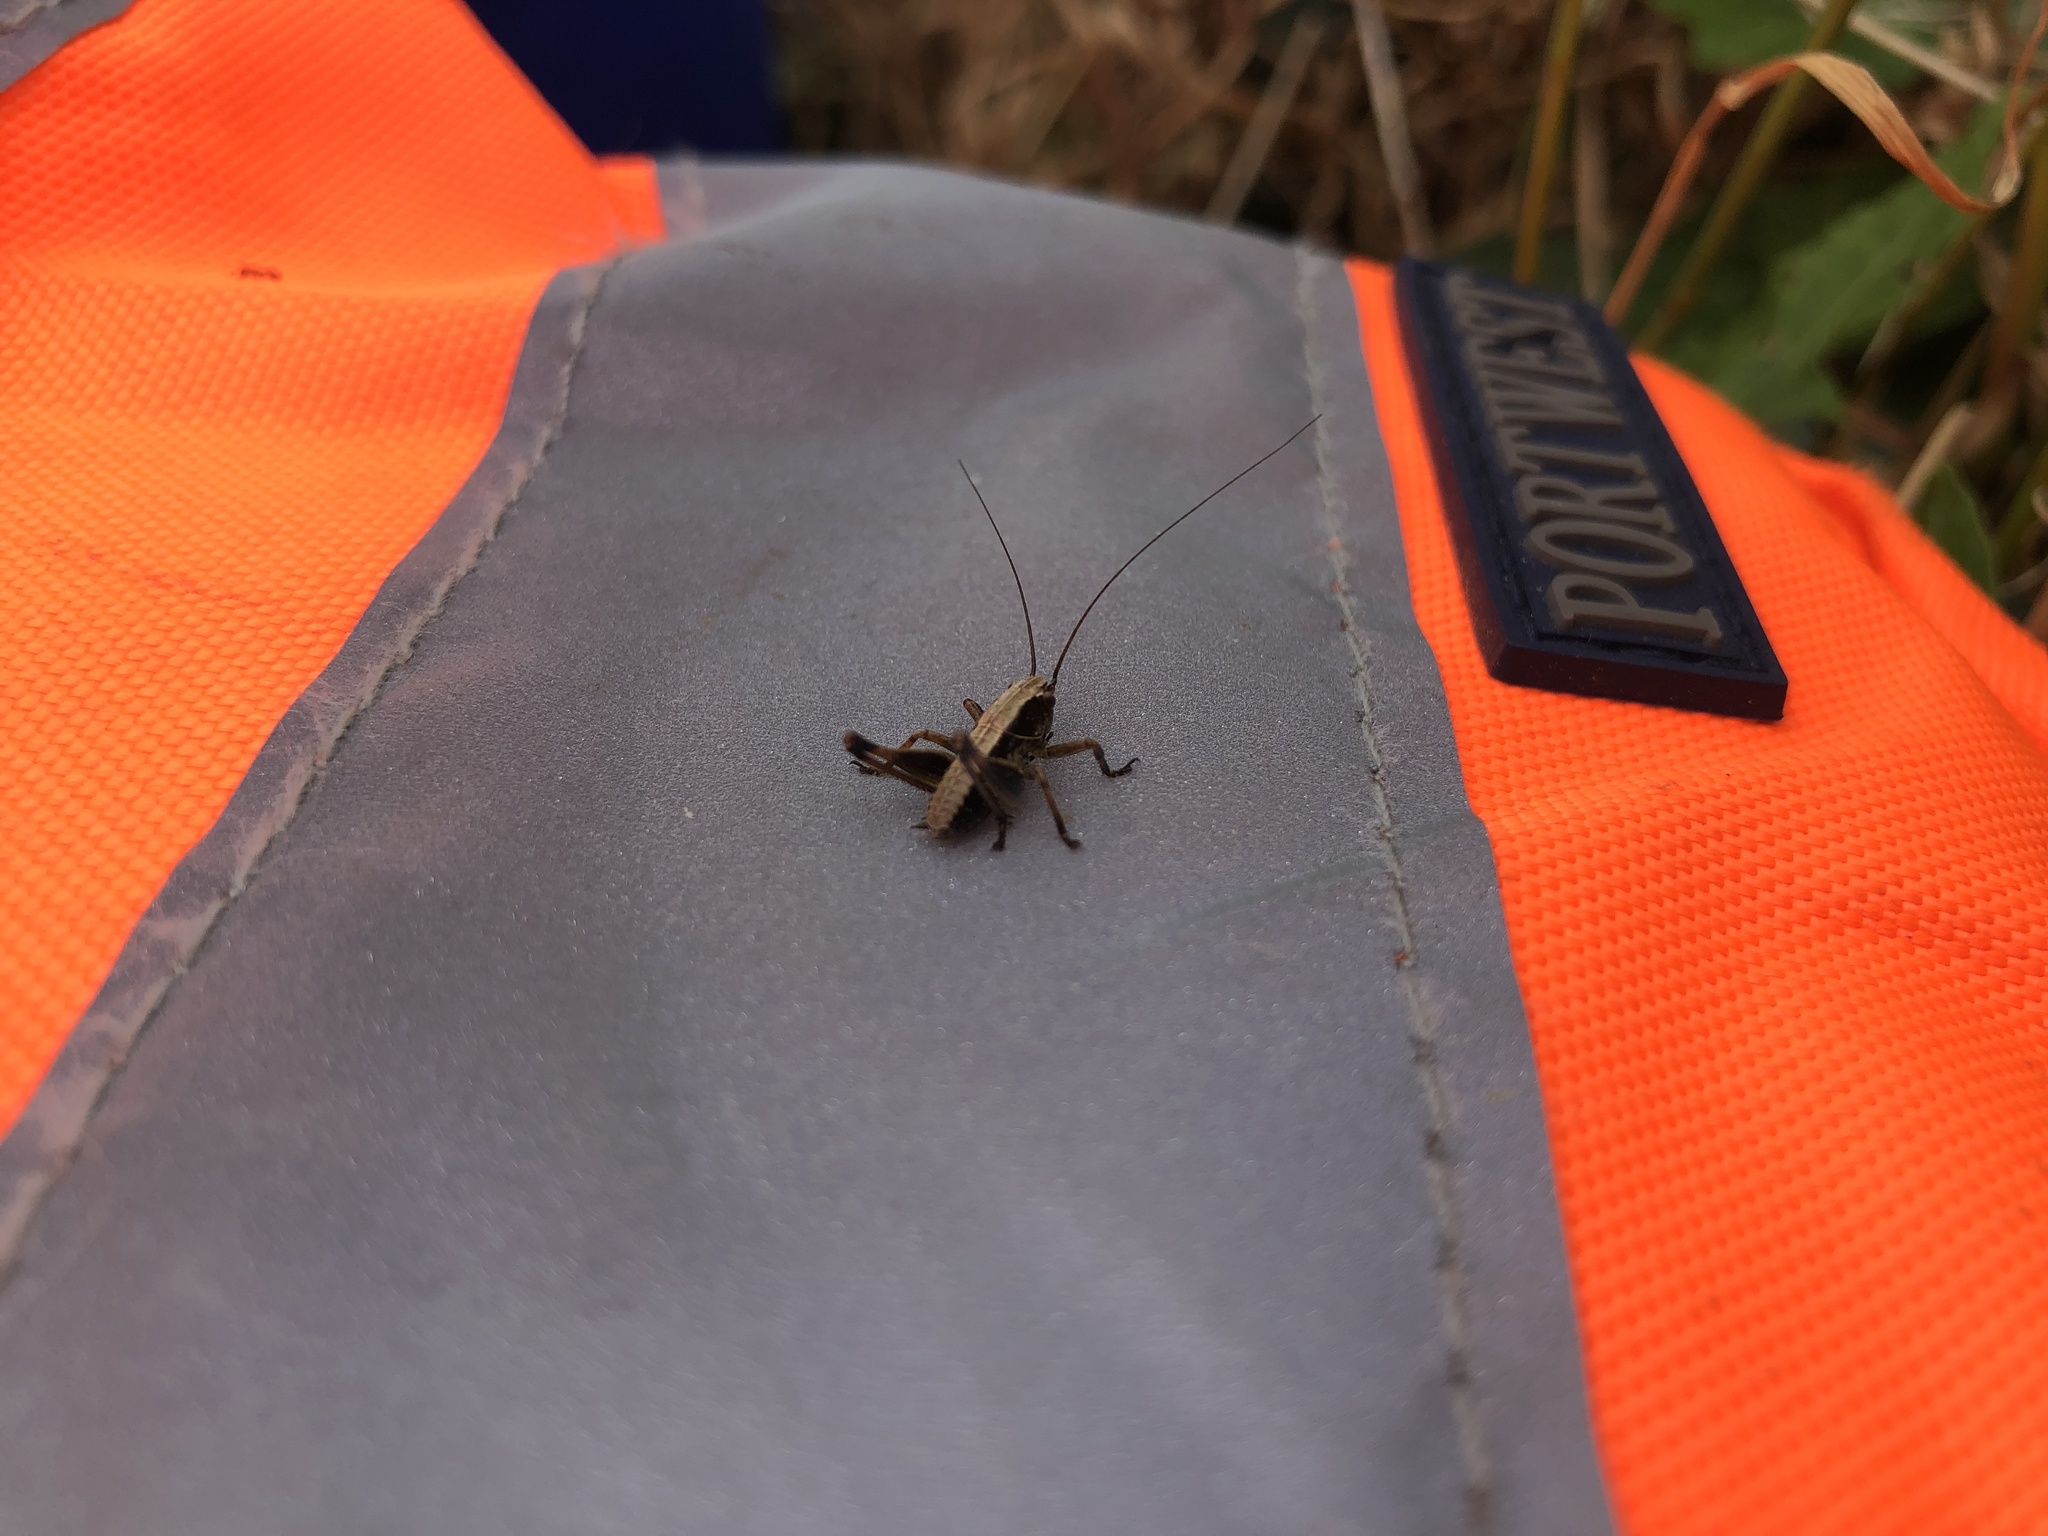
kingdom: Animalia
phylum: Arthropoda
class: Insecta
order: Orthoptera
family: Tettigoniidae
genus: Pholidoptera
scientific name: Pholidoptera griseoaptera
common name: Dark bush-cricket
